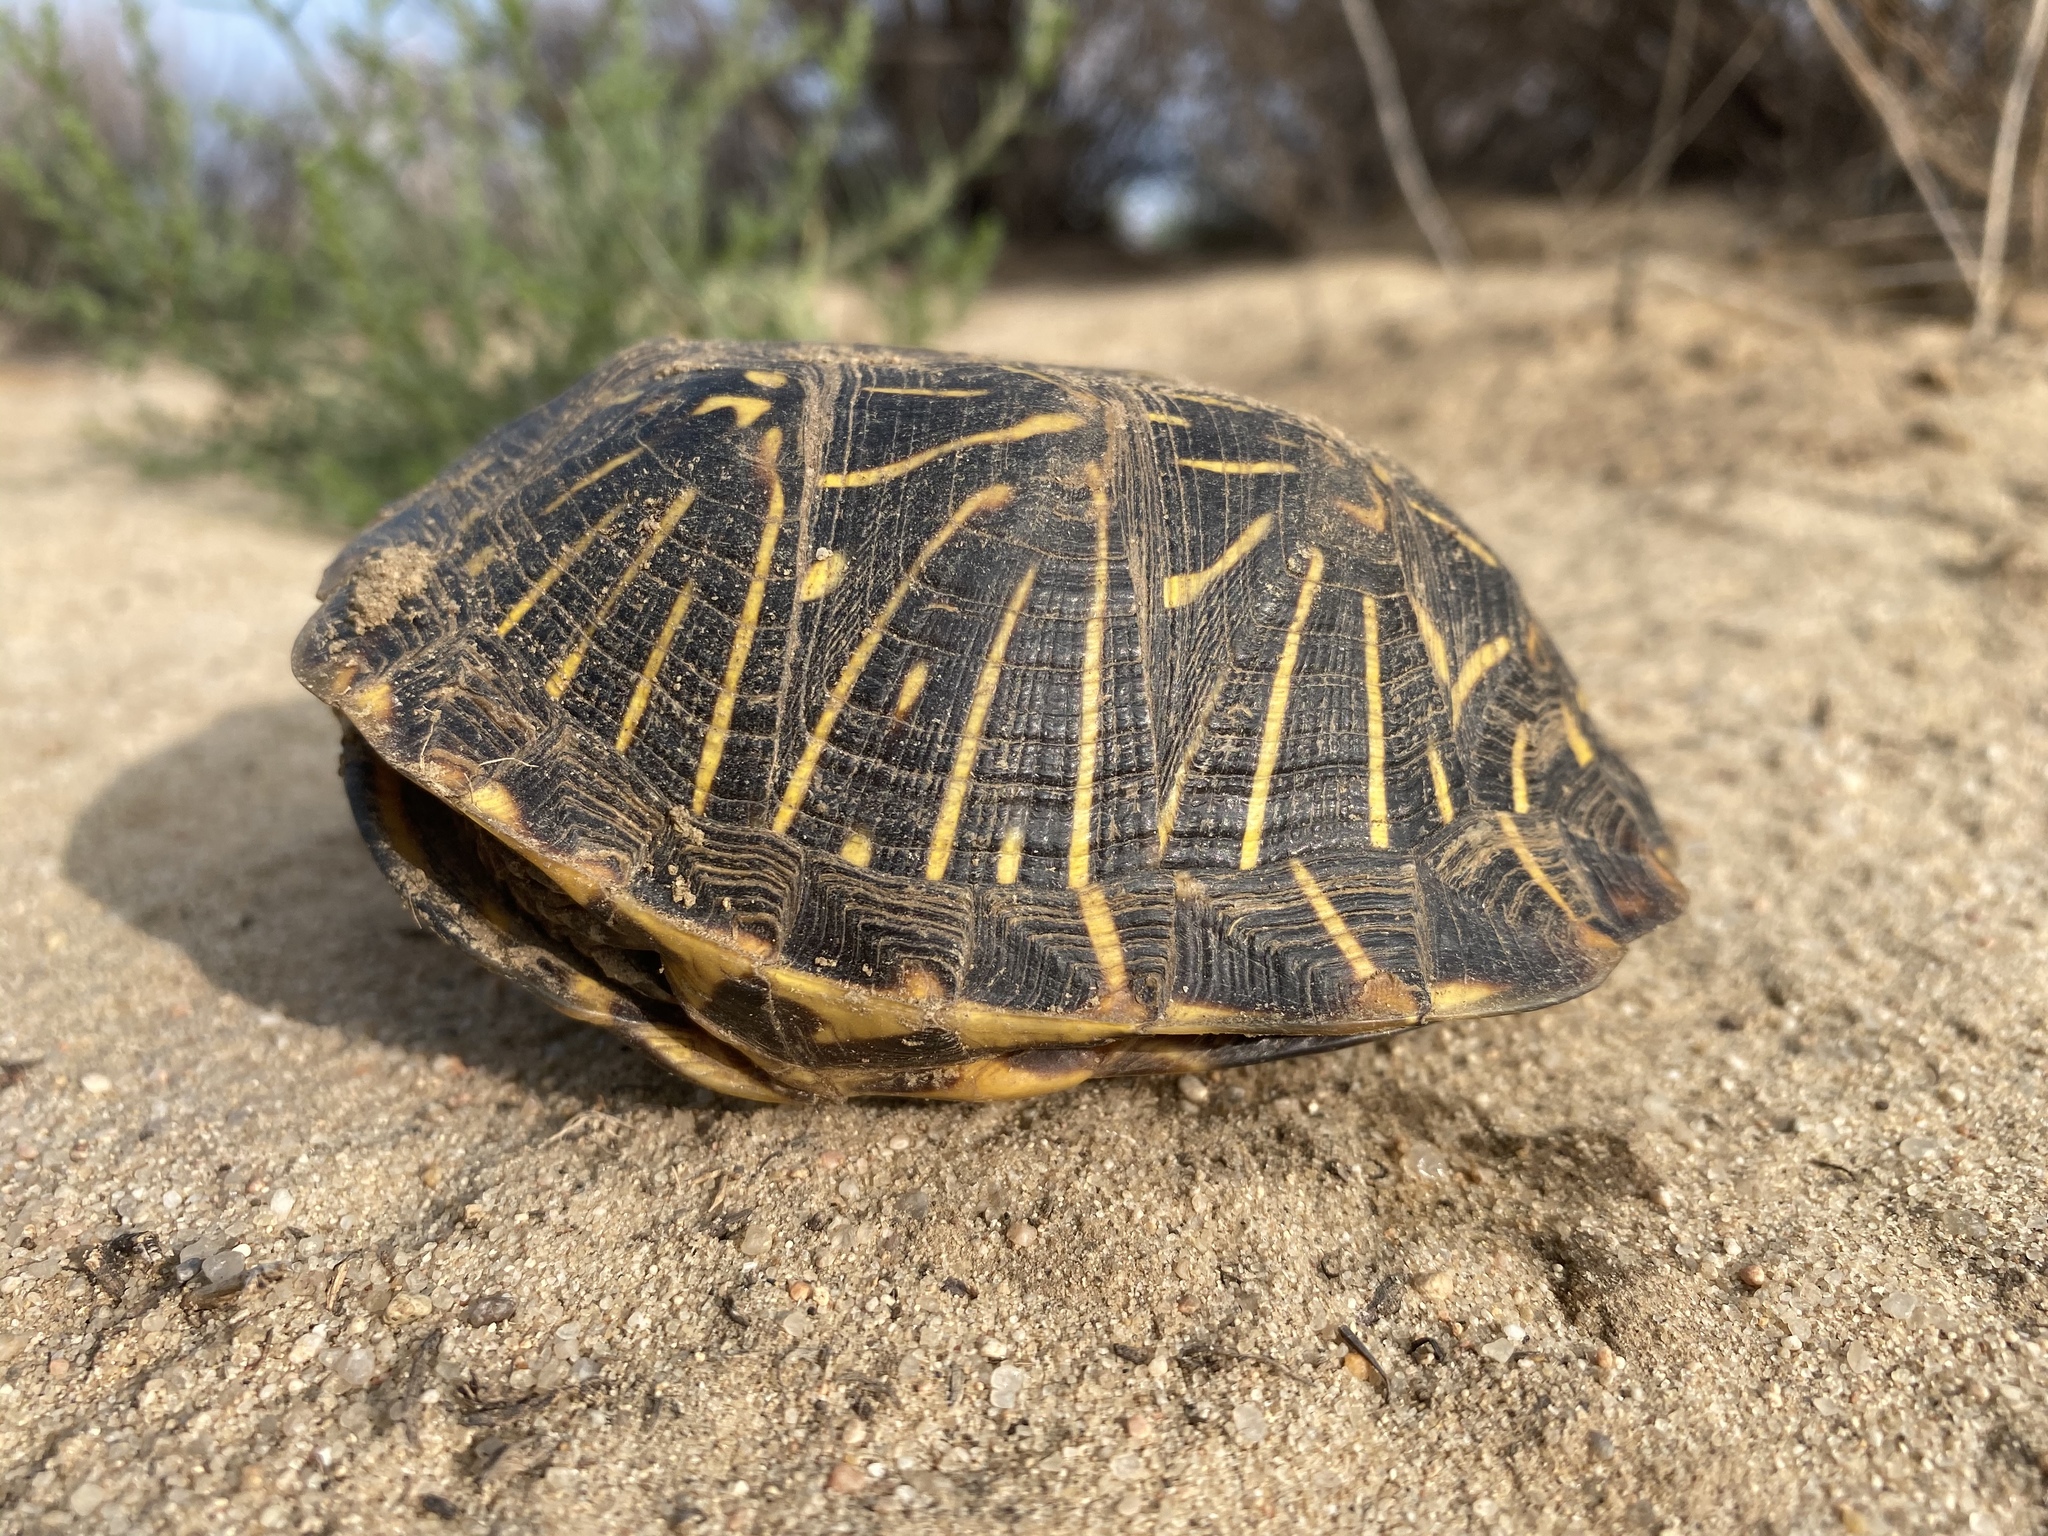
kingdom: Animalia
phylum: Chordata
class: Testudines
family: Emydidae
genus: Terrapene
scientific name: Terrapene ornata
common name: Western box turtle
